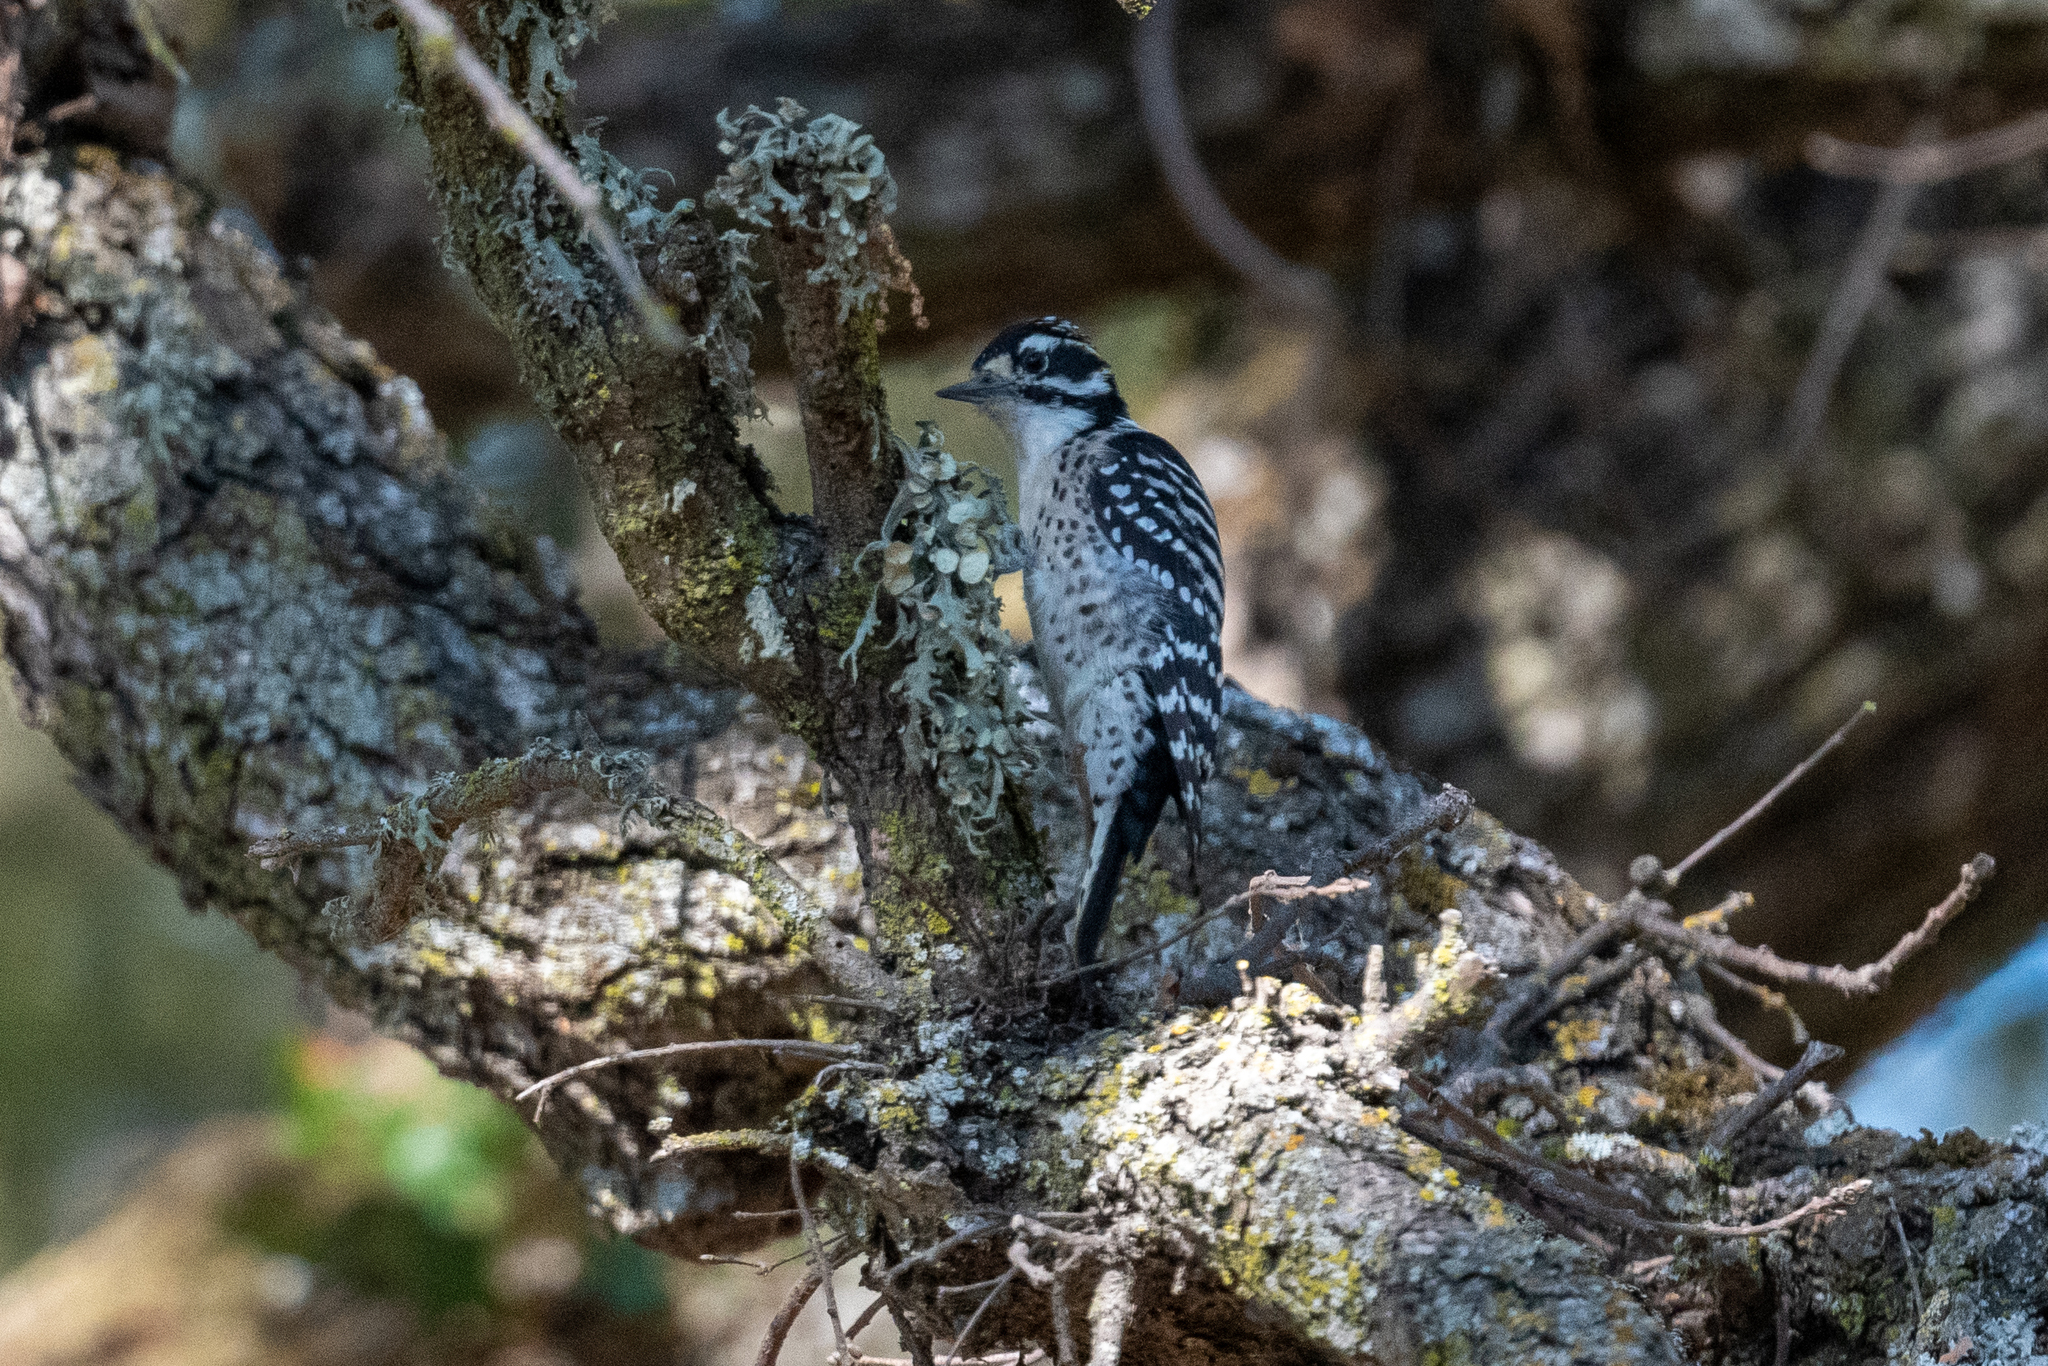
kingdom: Animalia
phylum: Chordata
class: Aves
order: Piciformes
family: Picidae
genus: Dryobates
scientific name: Dryobates nuttallii
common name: Nuttall's woodpecker
